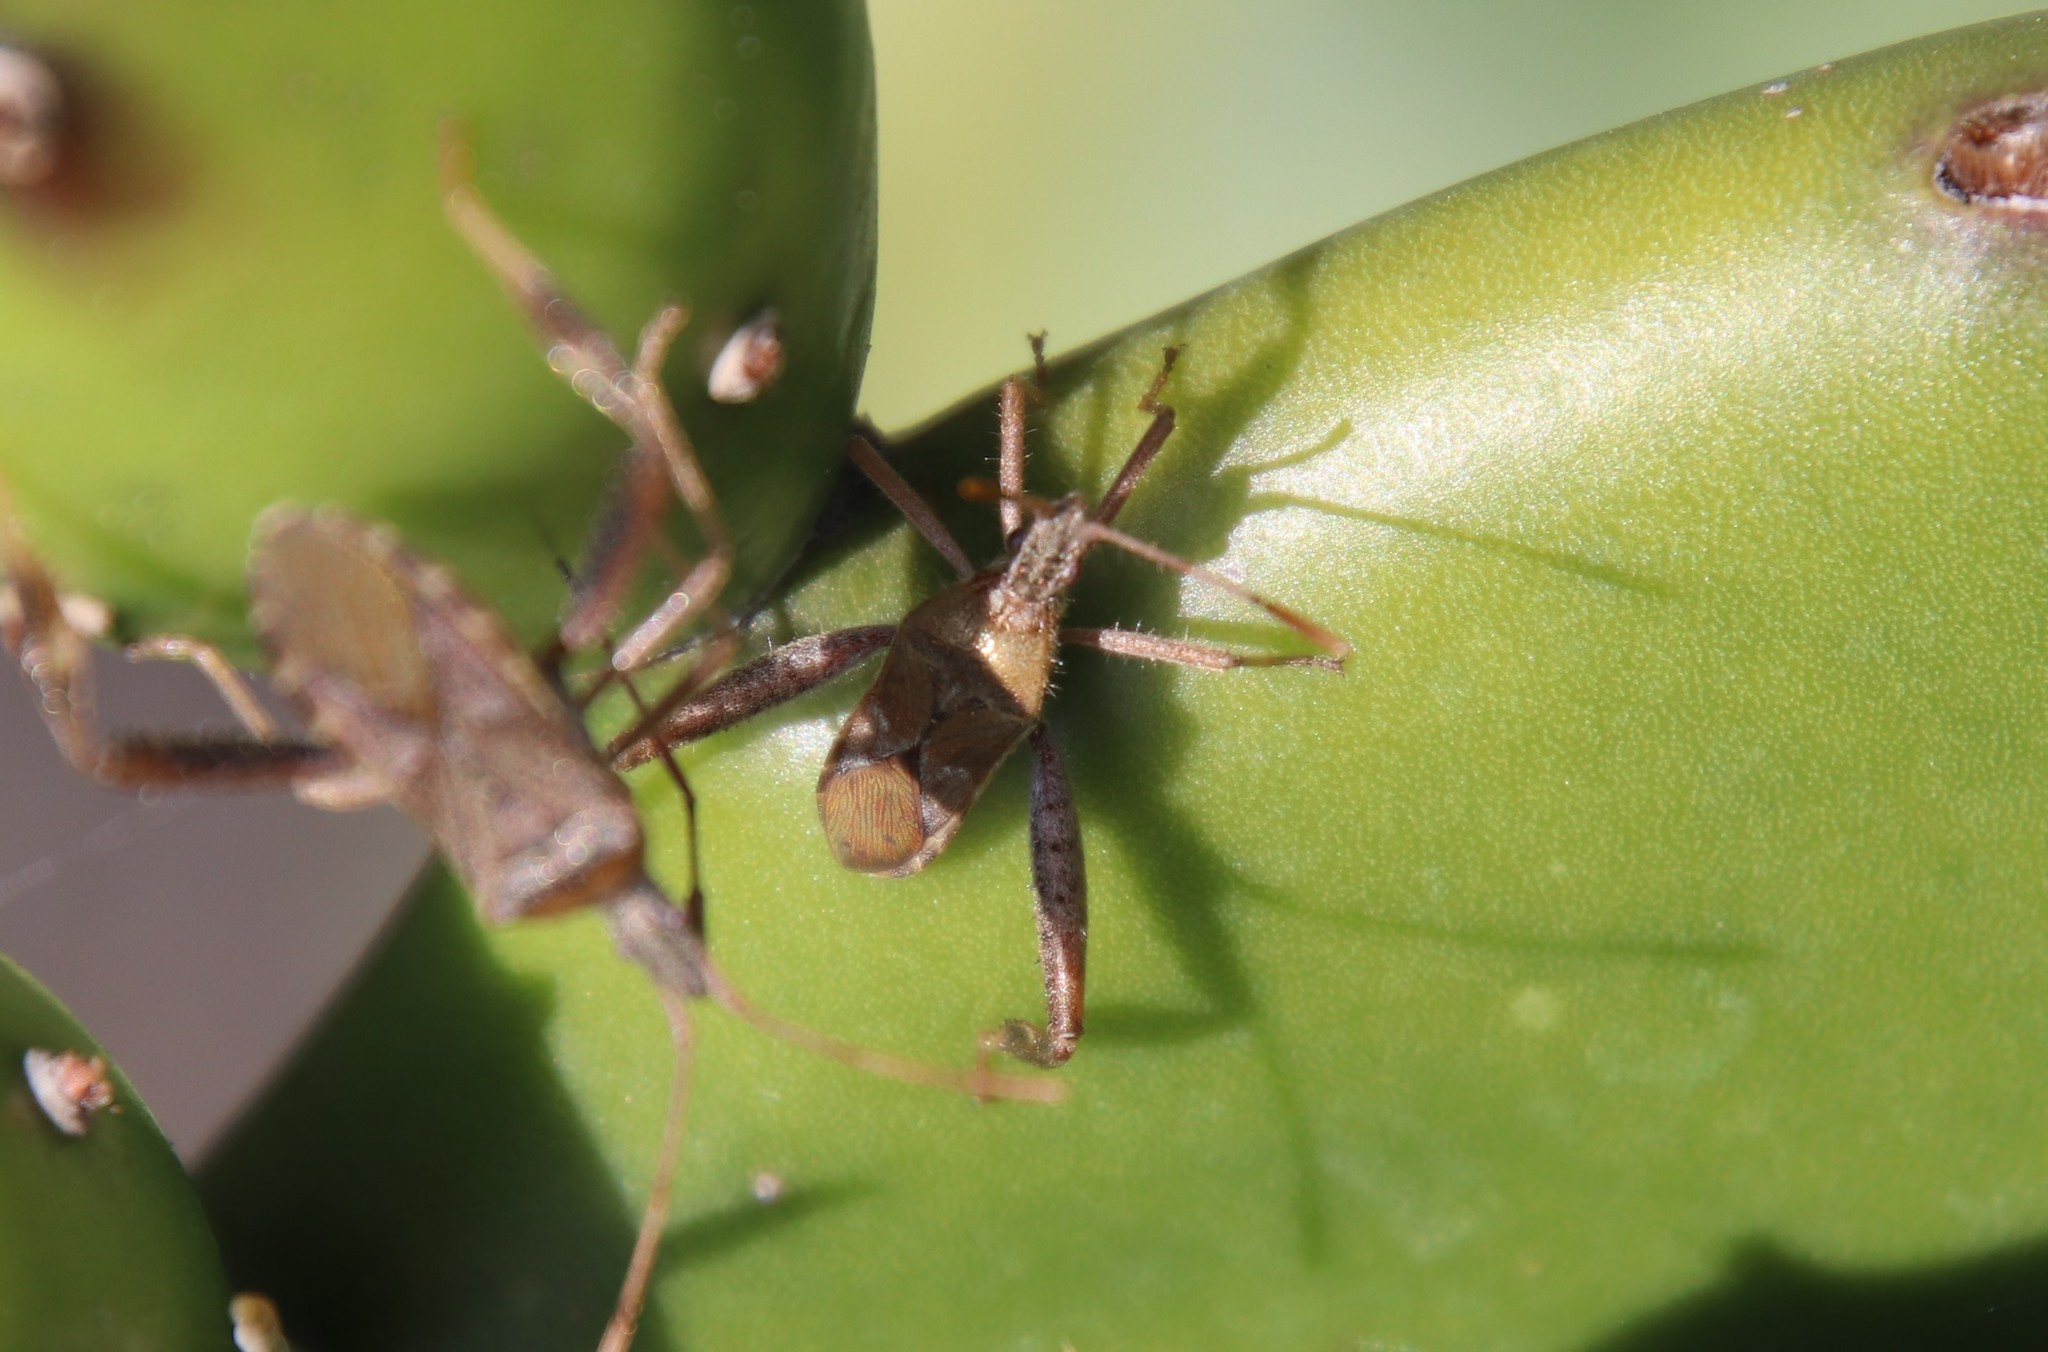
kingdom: Animalia
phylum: Arthropoda
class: Insecta
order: Hemiptera
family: Coreidae
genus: Narnia
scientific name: Narnia femorata
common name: Leaf-footed cactus bug
